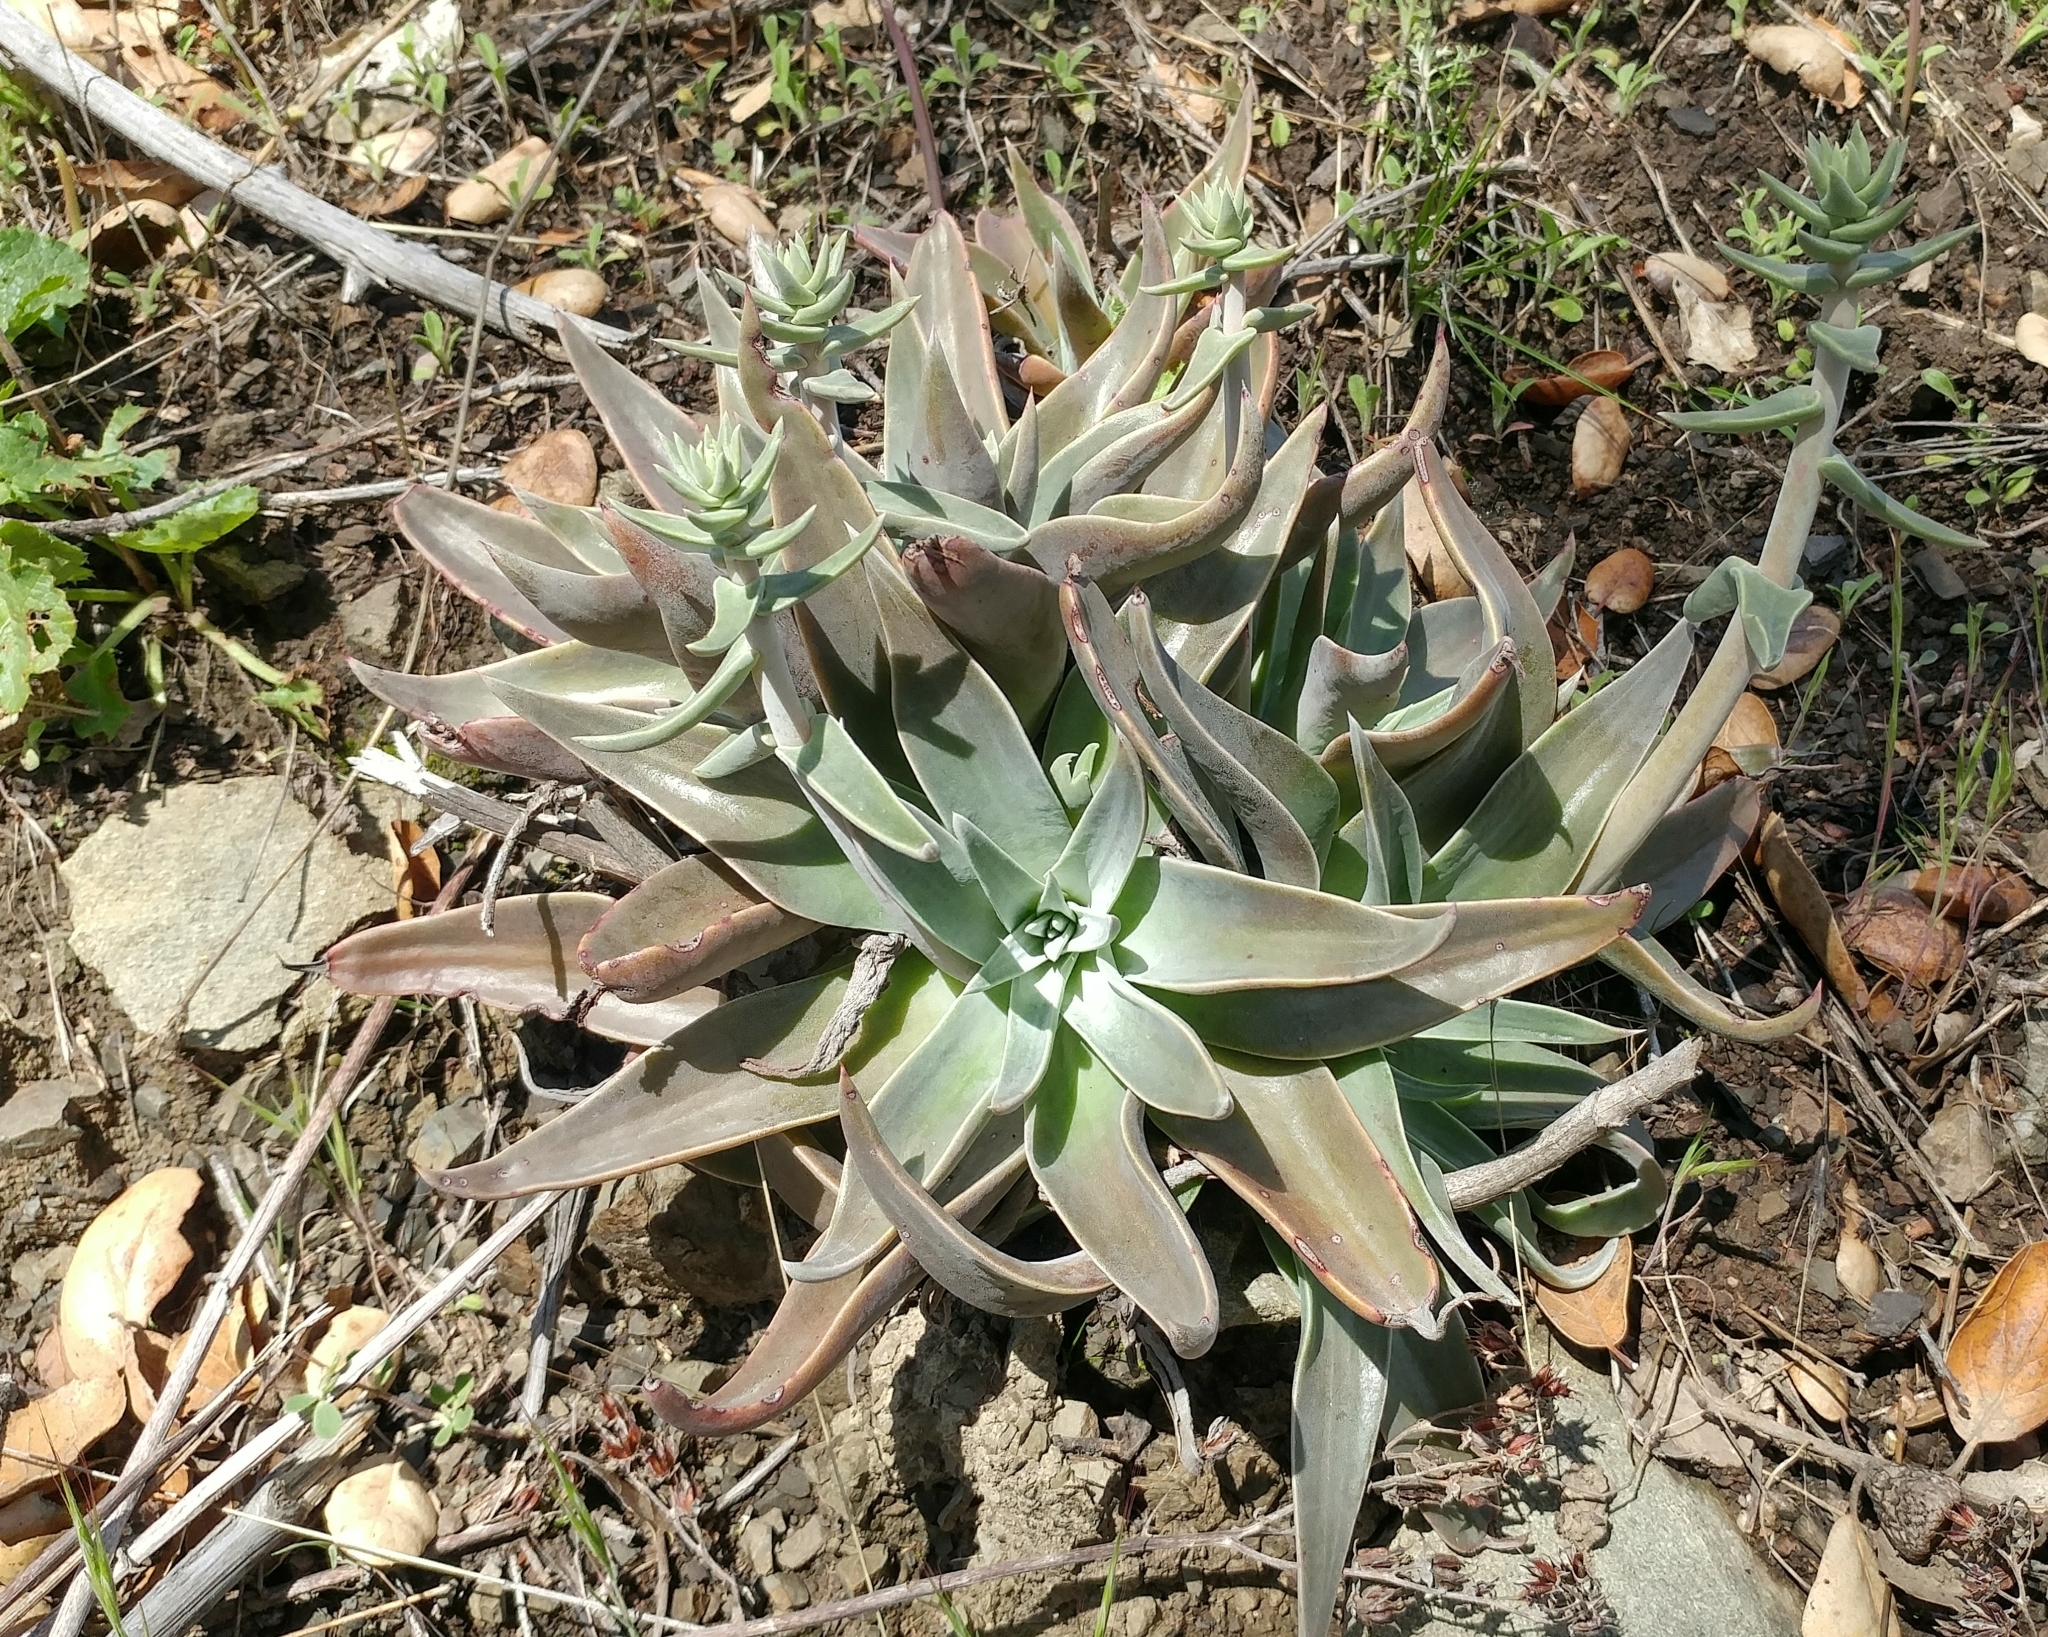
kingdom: Plantae
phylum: Tracheophyta
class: Magnoliopsida
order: Saxifragales
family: Crassulaceae
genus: Dudleya
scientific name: Dudleya lanceolata
